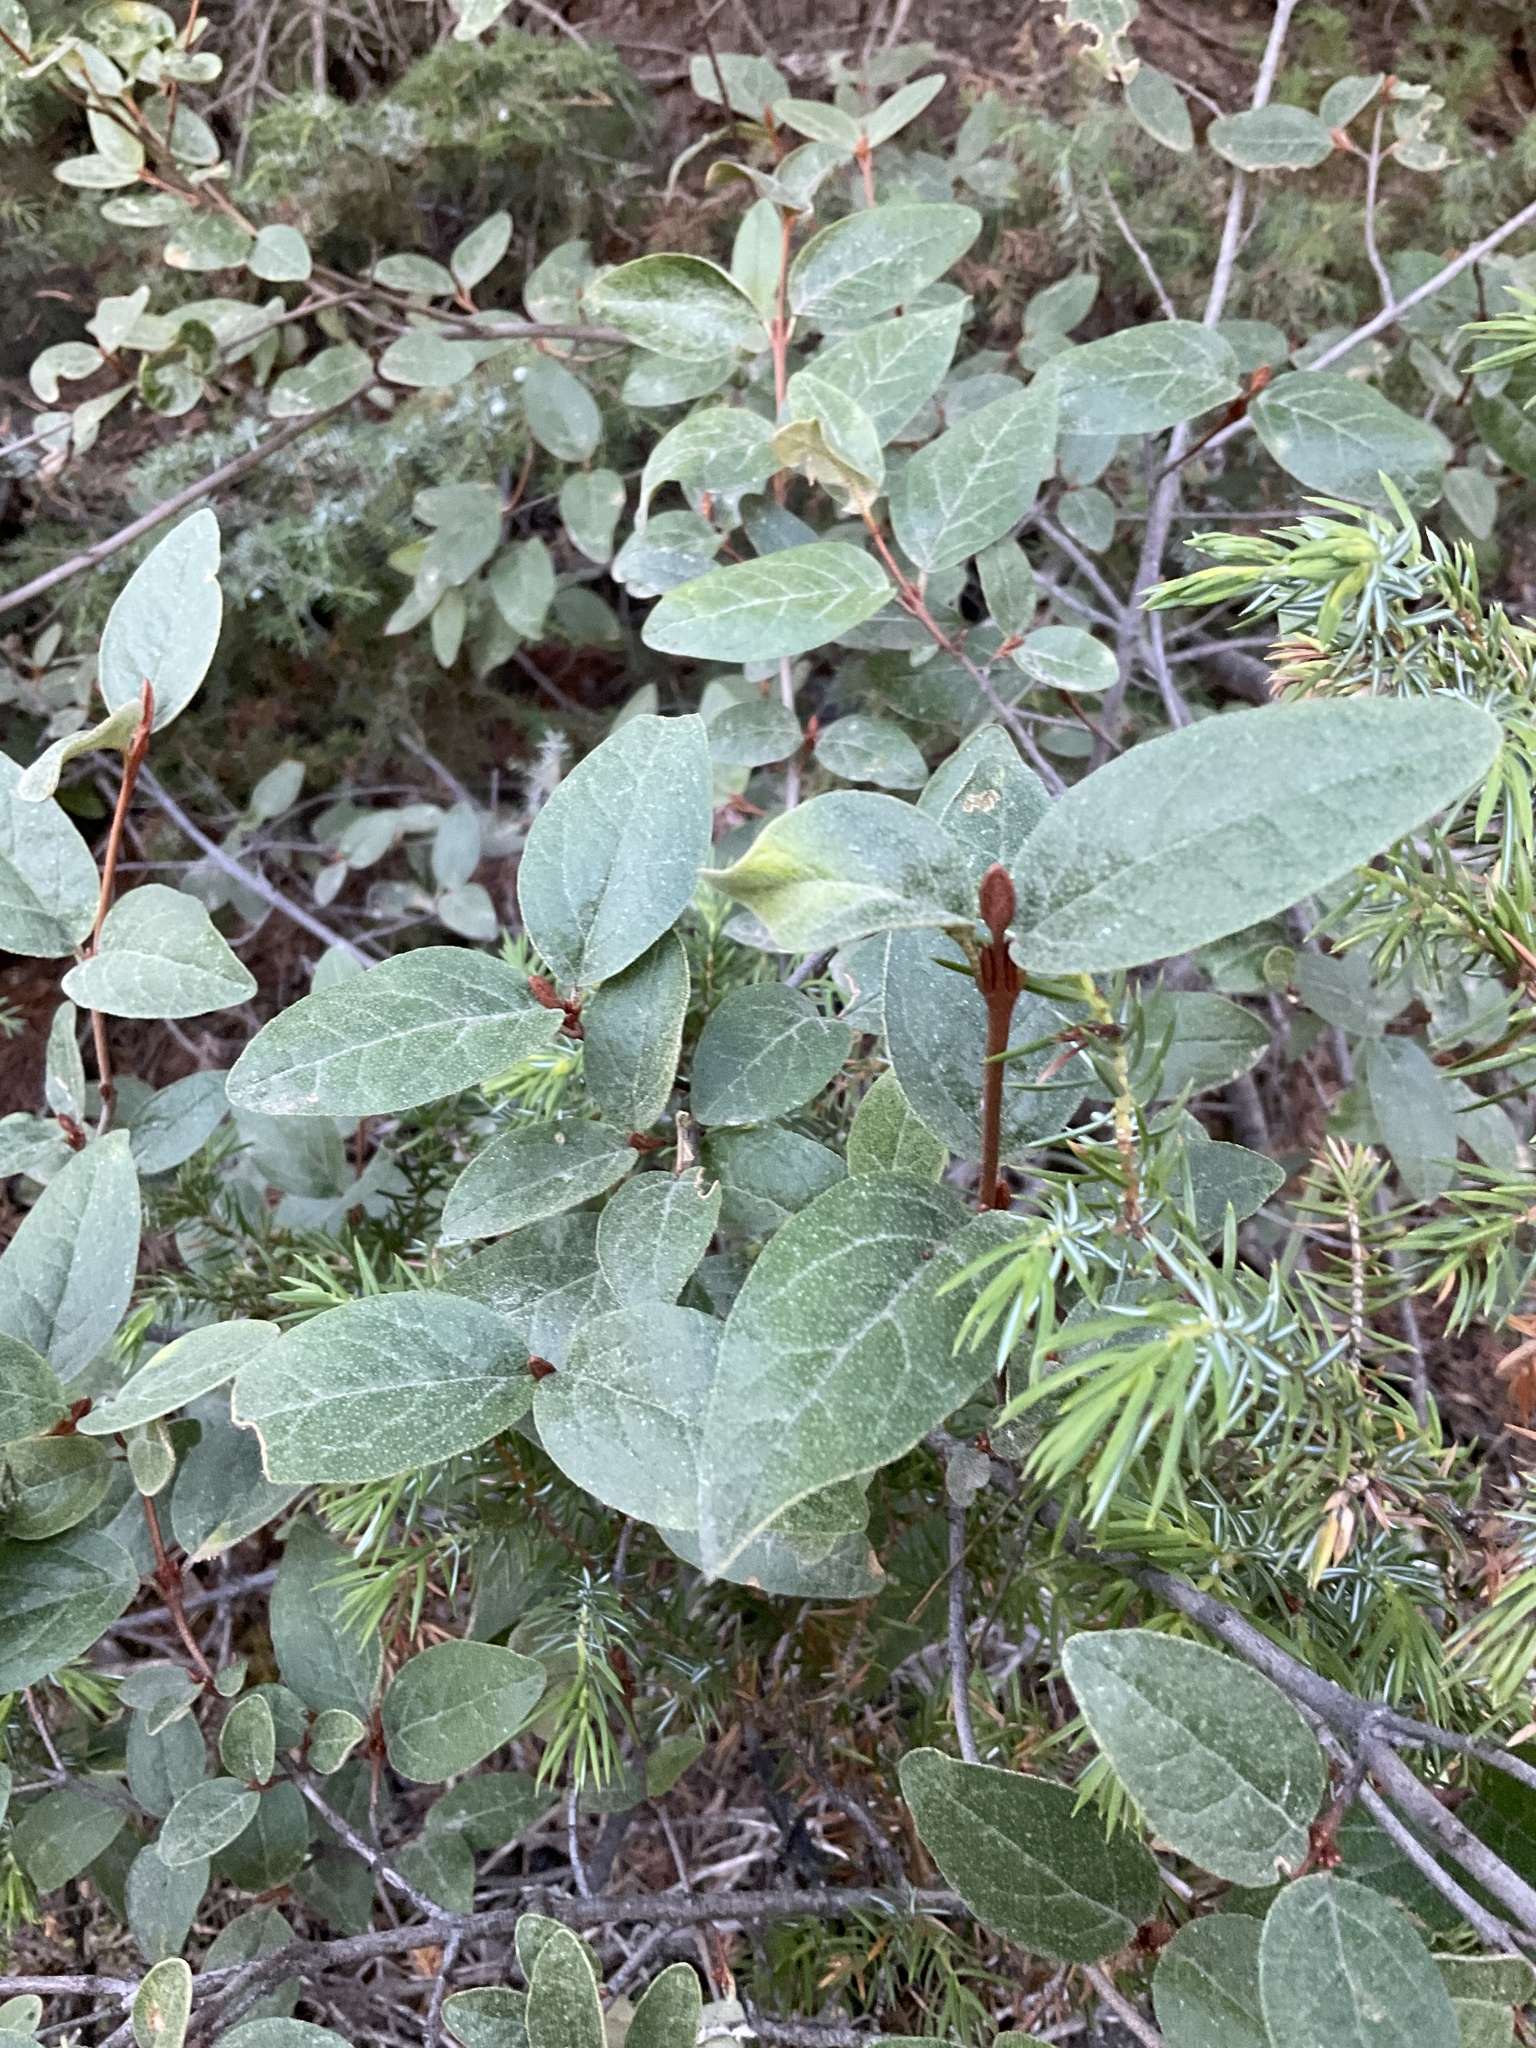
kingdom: Plantae
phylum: Tracheophyta
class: Magnoliopsida
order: Rosales
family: Elaeagnaceae
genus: Shepherdia
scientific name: Shepherdia canadensis
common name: Soapberry
